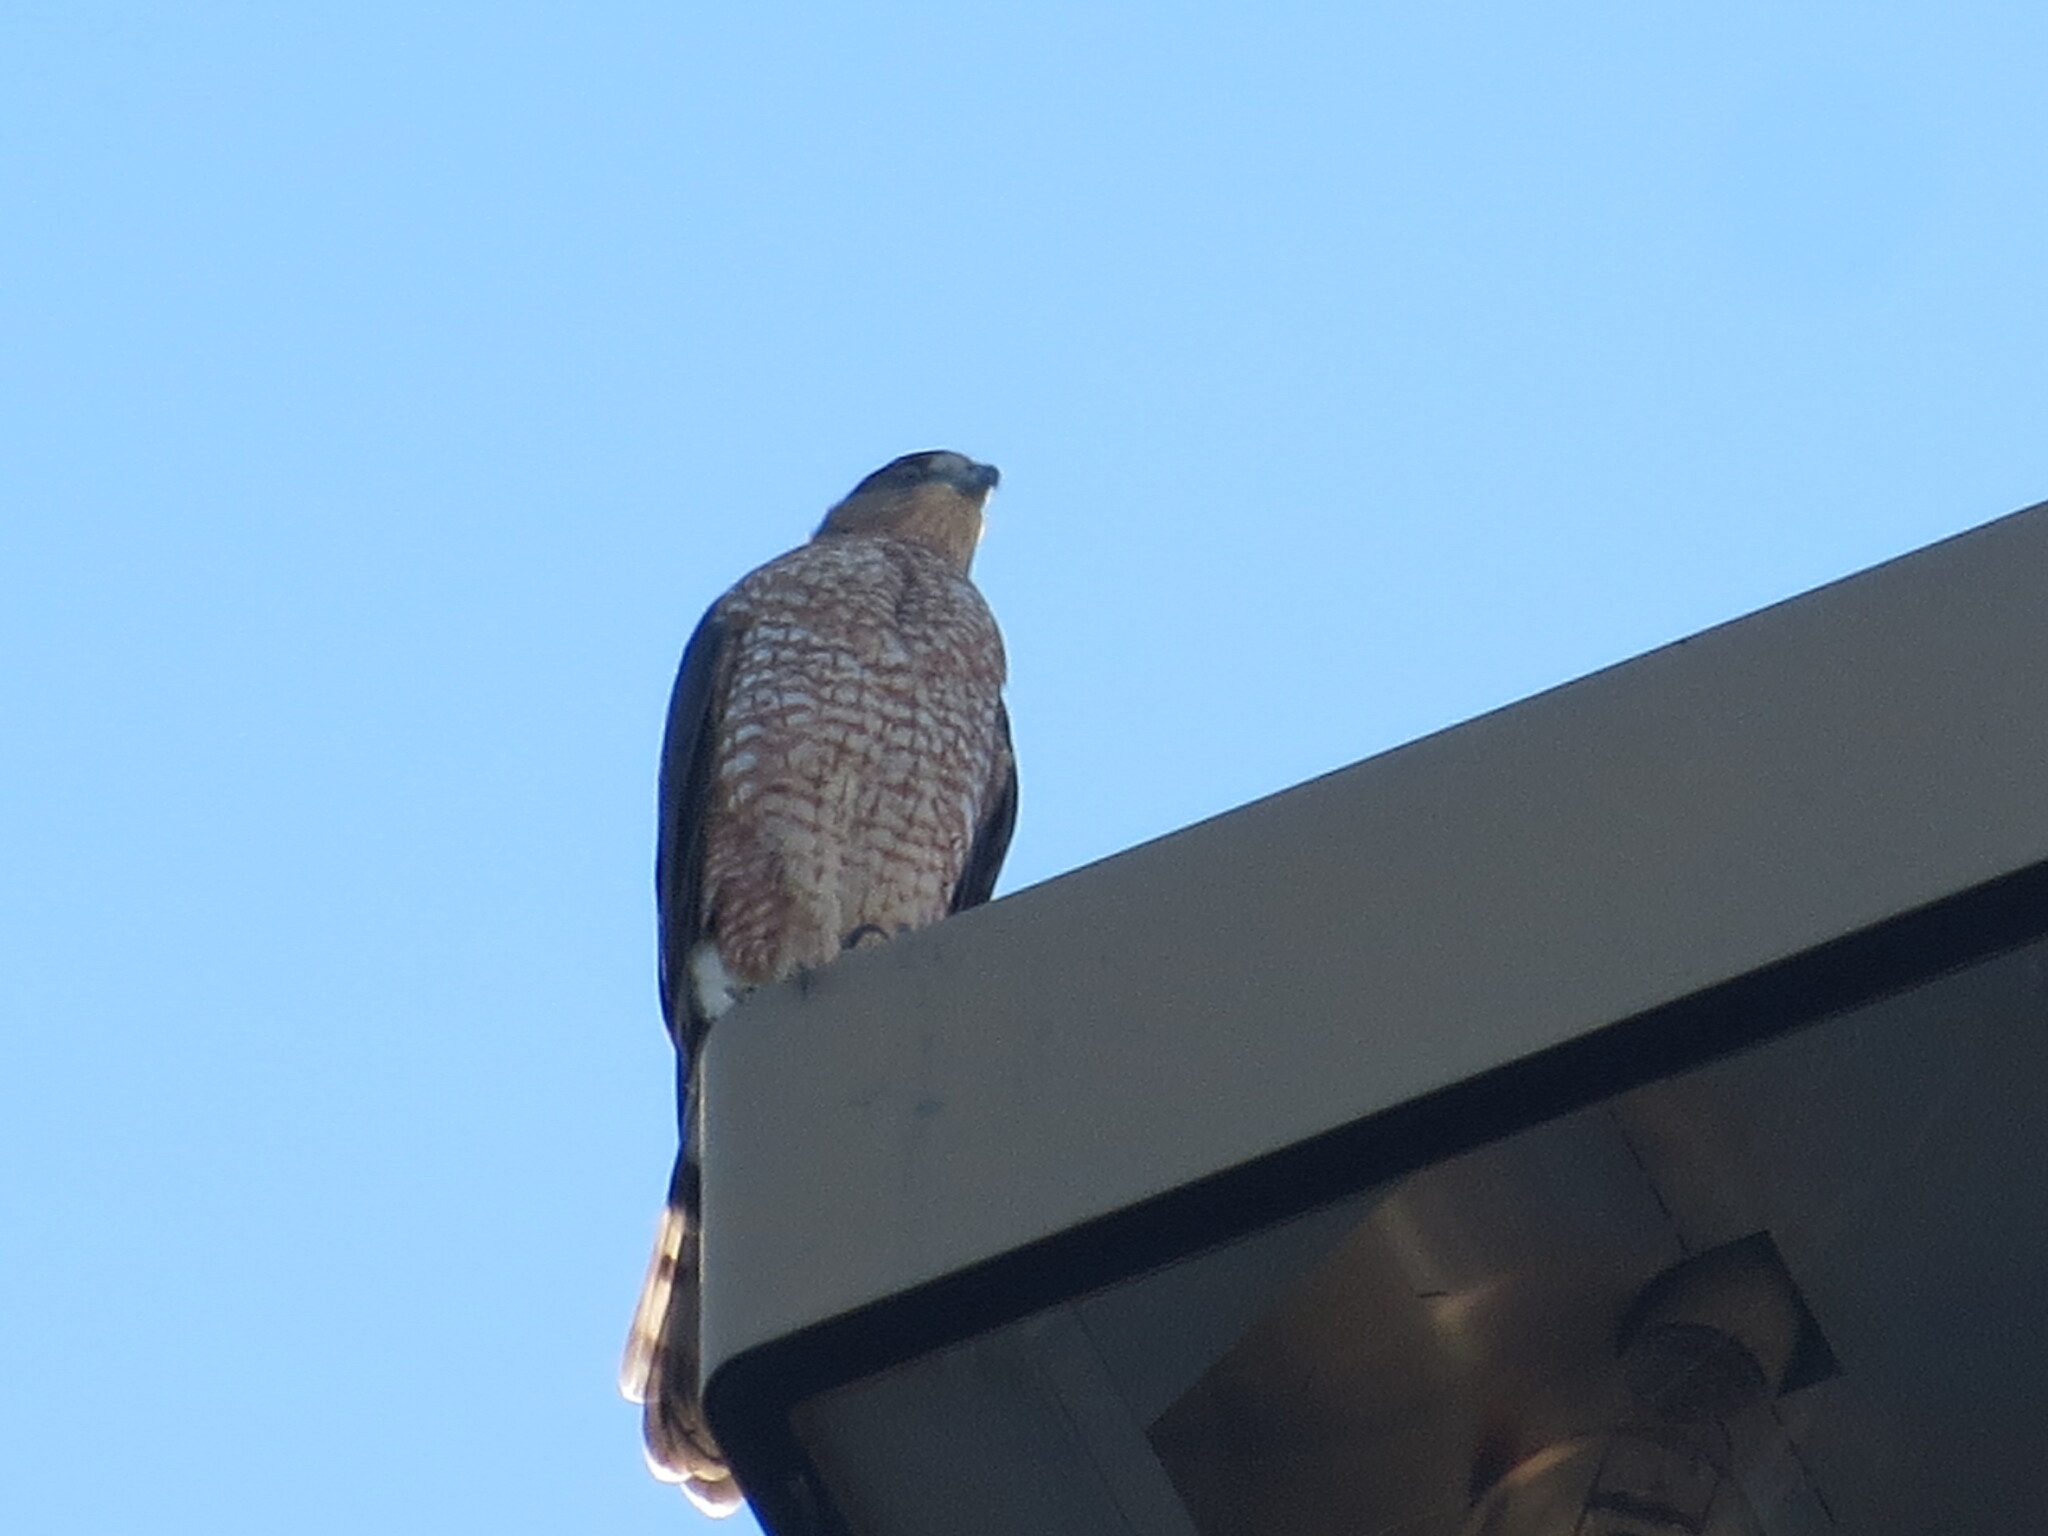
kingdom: Animalia
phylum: Chordata
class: Aves
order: Accipitriformes
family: Accipitridae
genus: Accipiter
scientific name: Accipiter cooperii
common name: Cooper's hawk
